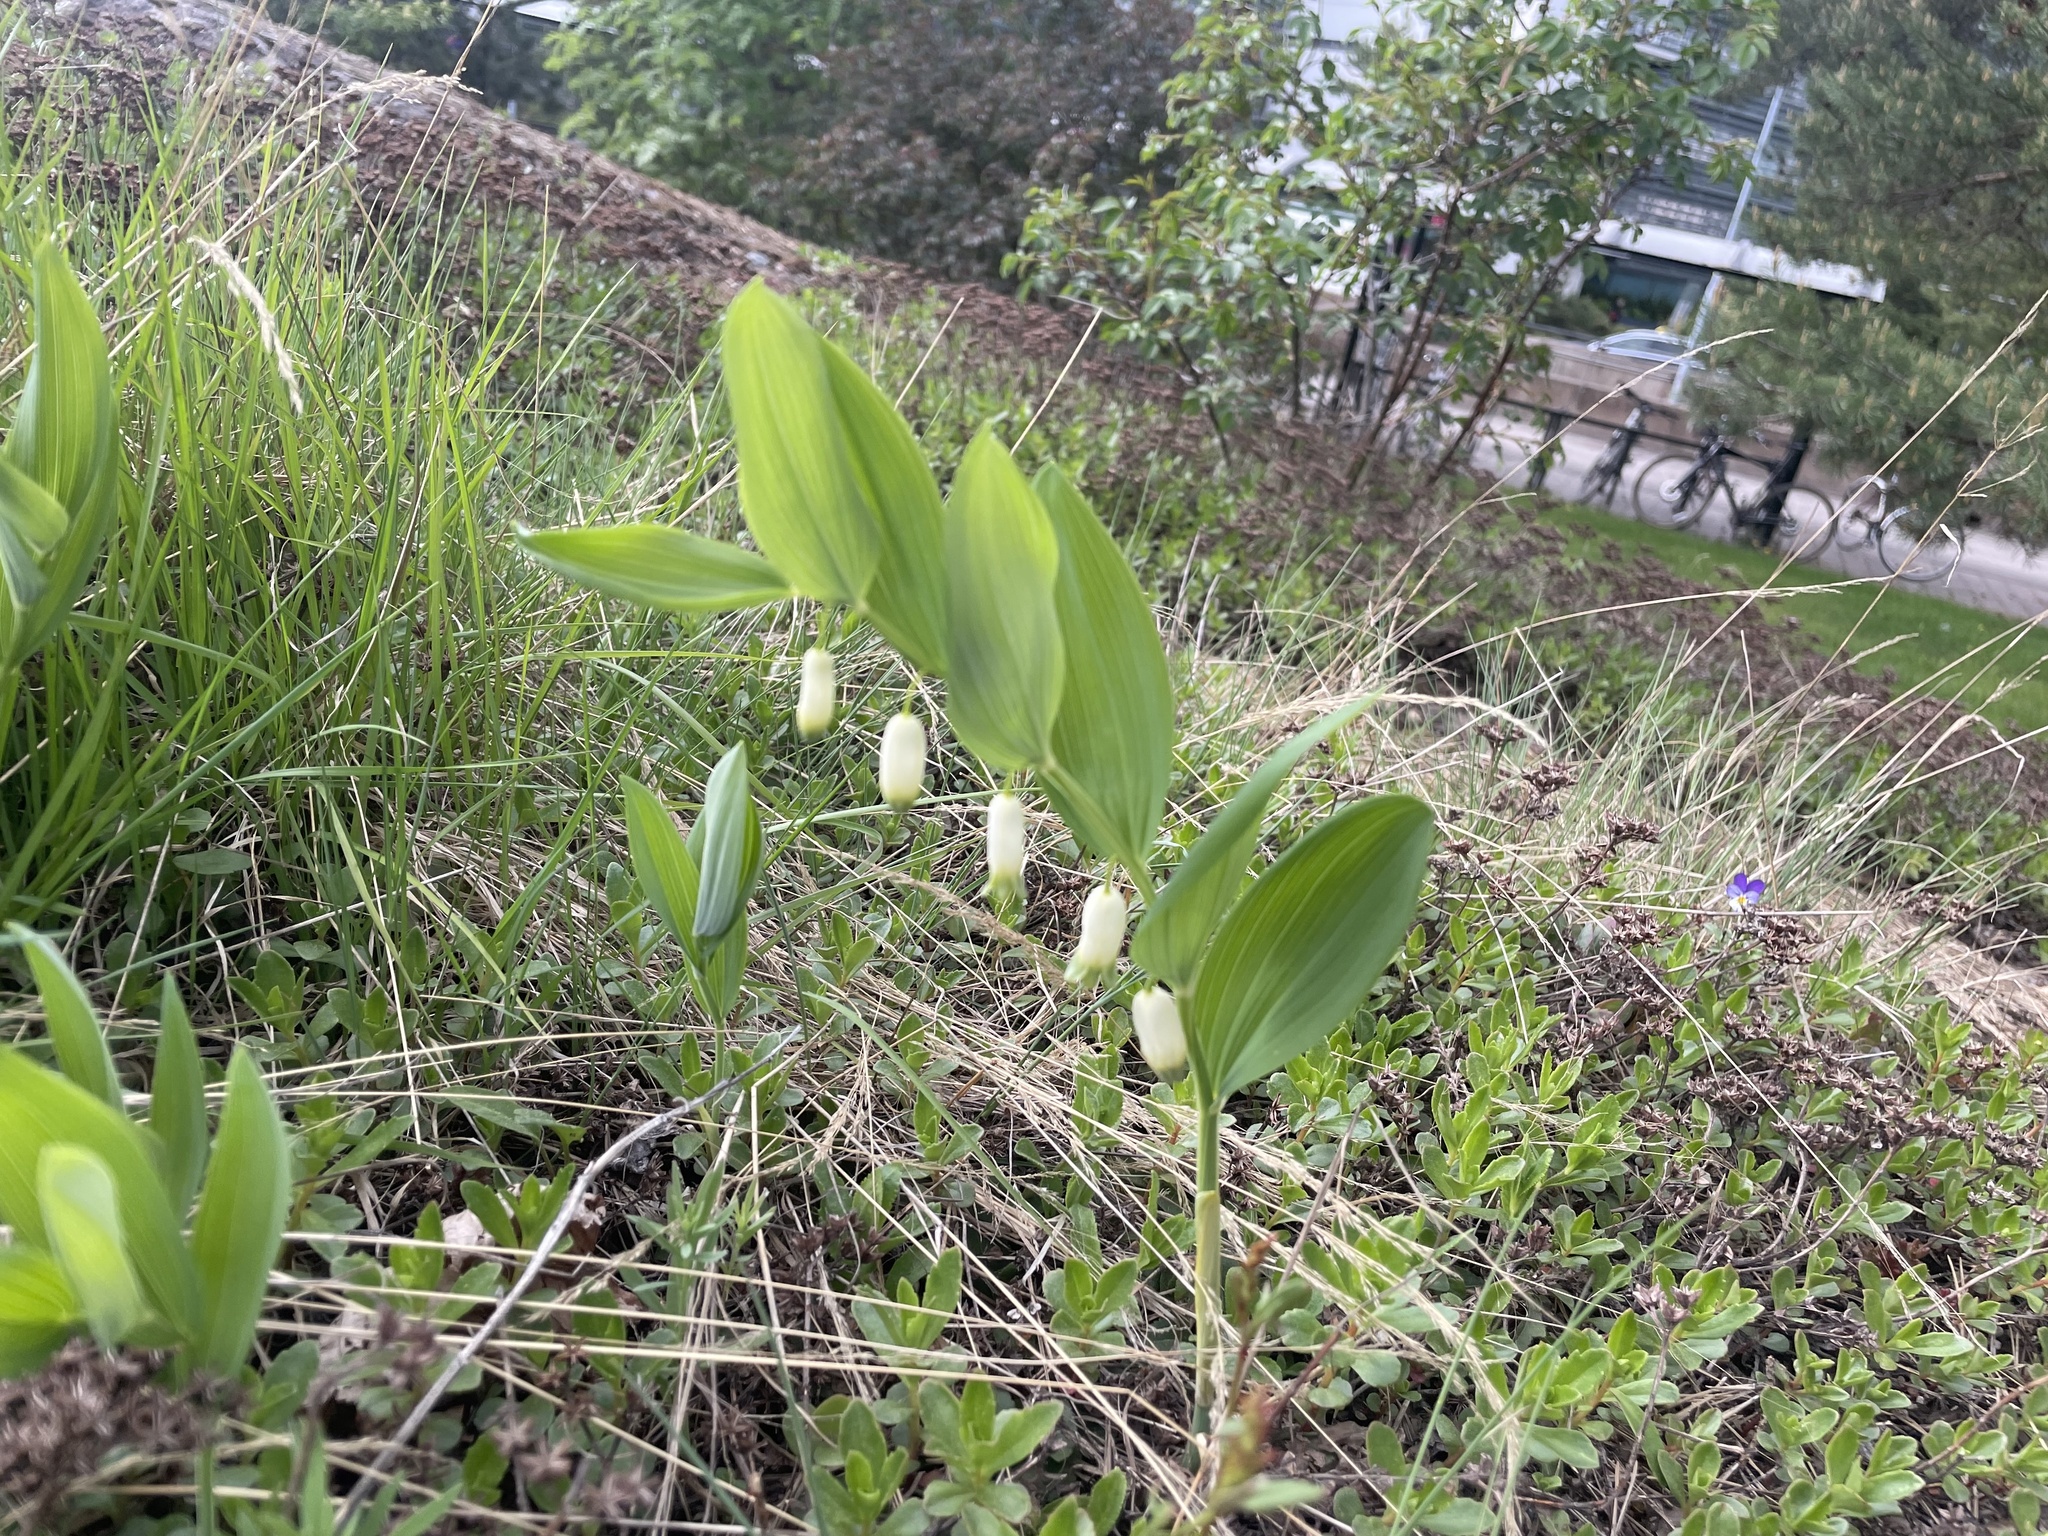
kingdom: Plantae
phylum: Tracheophyta
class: Liliopsida
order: Asparagales
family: Asparagaceae
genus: Polygonatum
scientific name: Polygonatum odoratum
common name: Angular solomon's-seal
